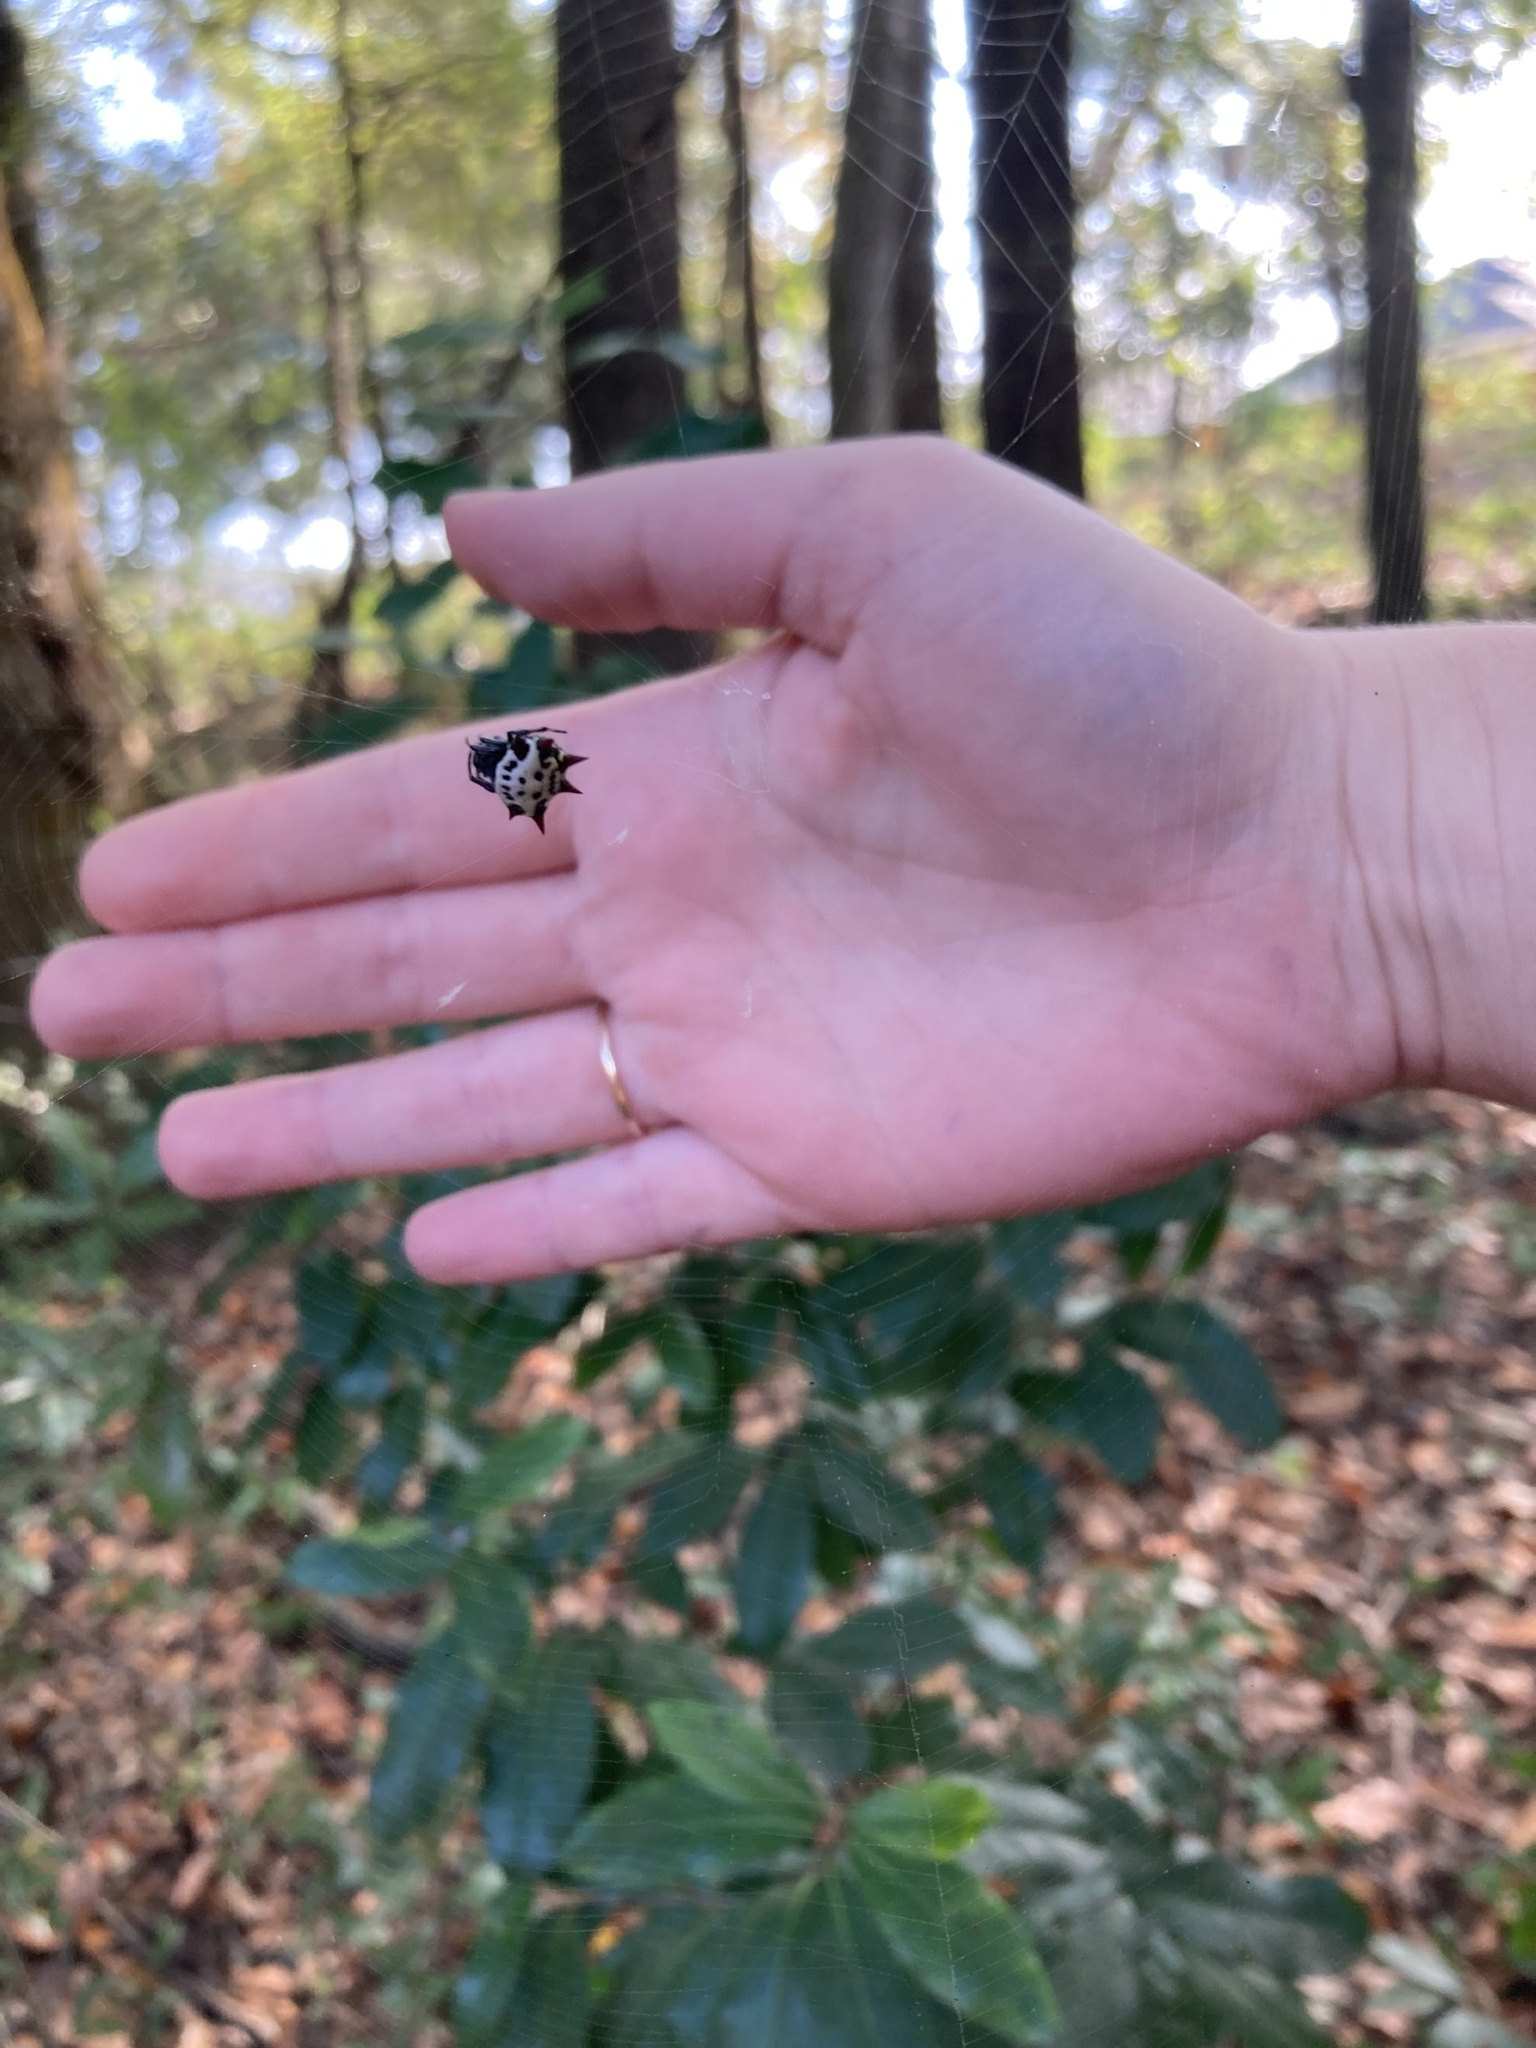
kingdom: Animalia
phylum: Arthropoda
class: Arachnida
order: Araneae
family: Araneidae
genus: Gasteracantha
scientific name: Gasteracantha cancriformis
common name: Orb weavers
